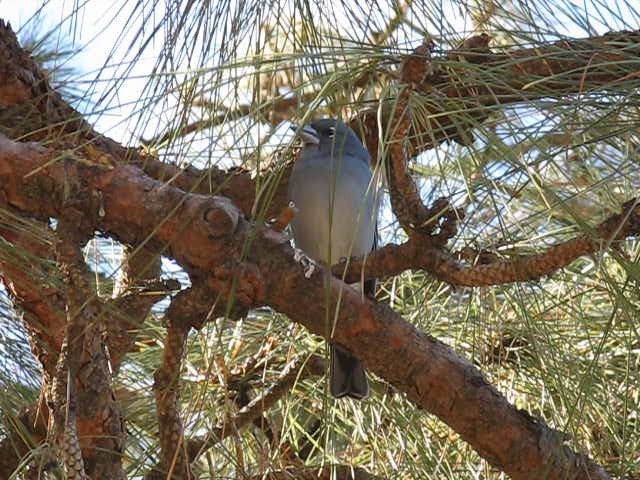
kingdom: Plantae
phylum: Tracheophyta
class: Pinopsida
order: Pinales
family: Pinaceae
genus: Pinus
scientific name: Pinus canariensis
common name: Canary islands pine
